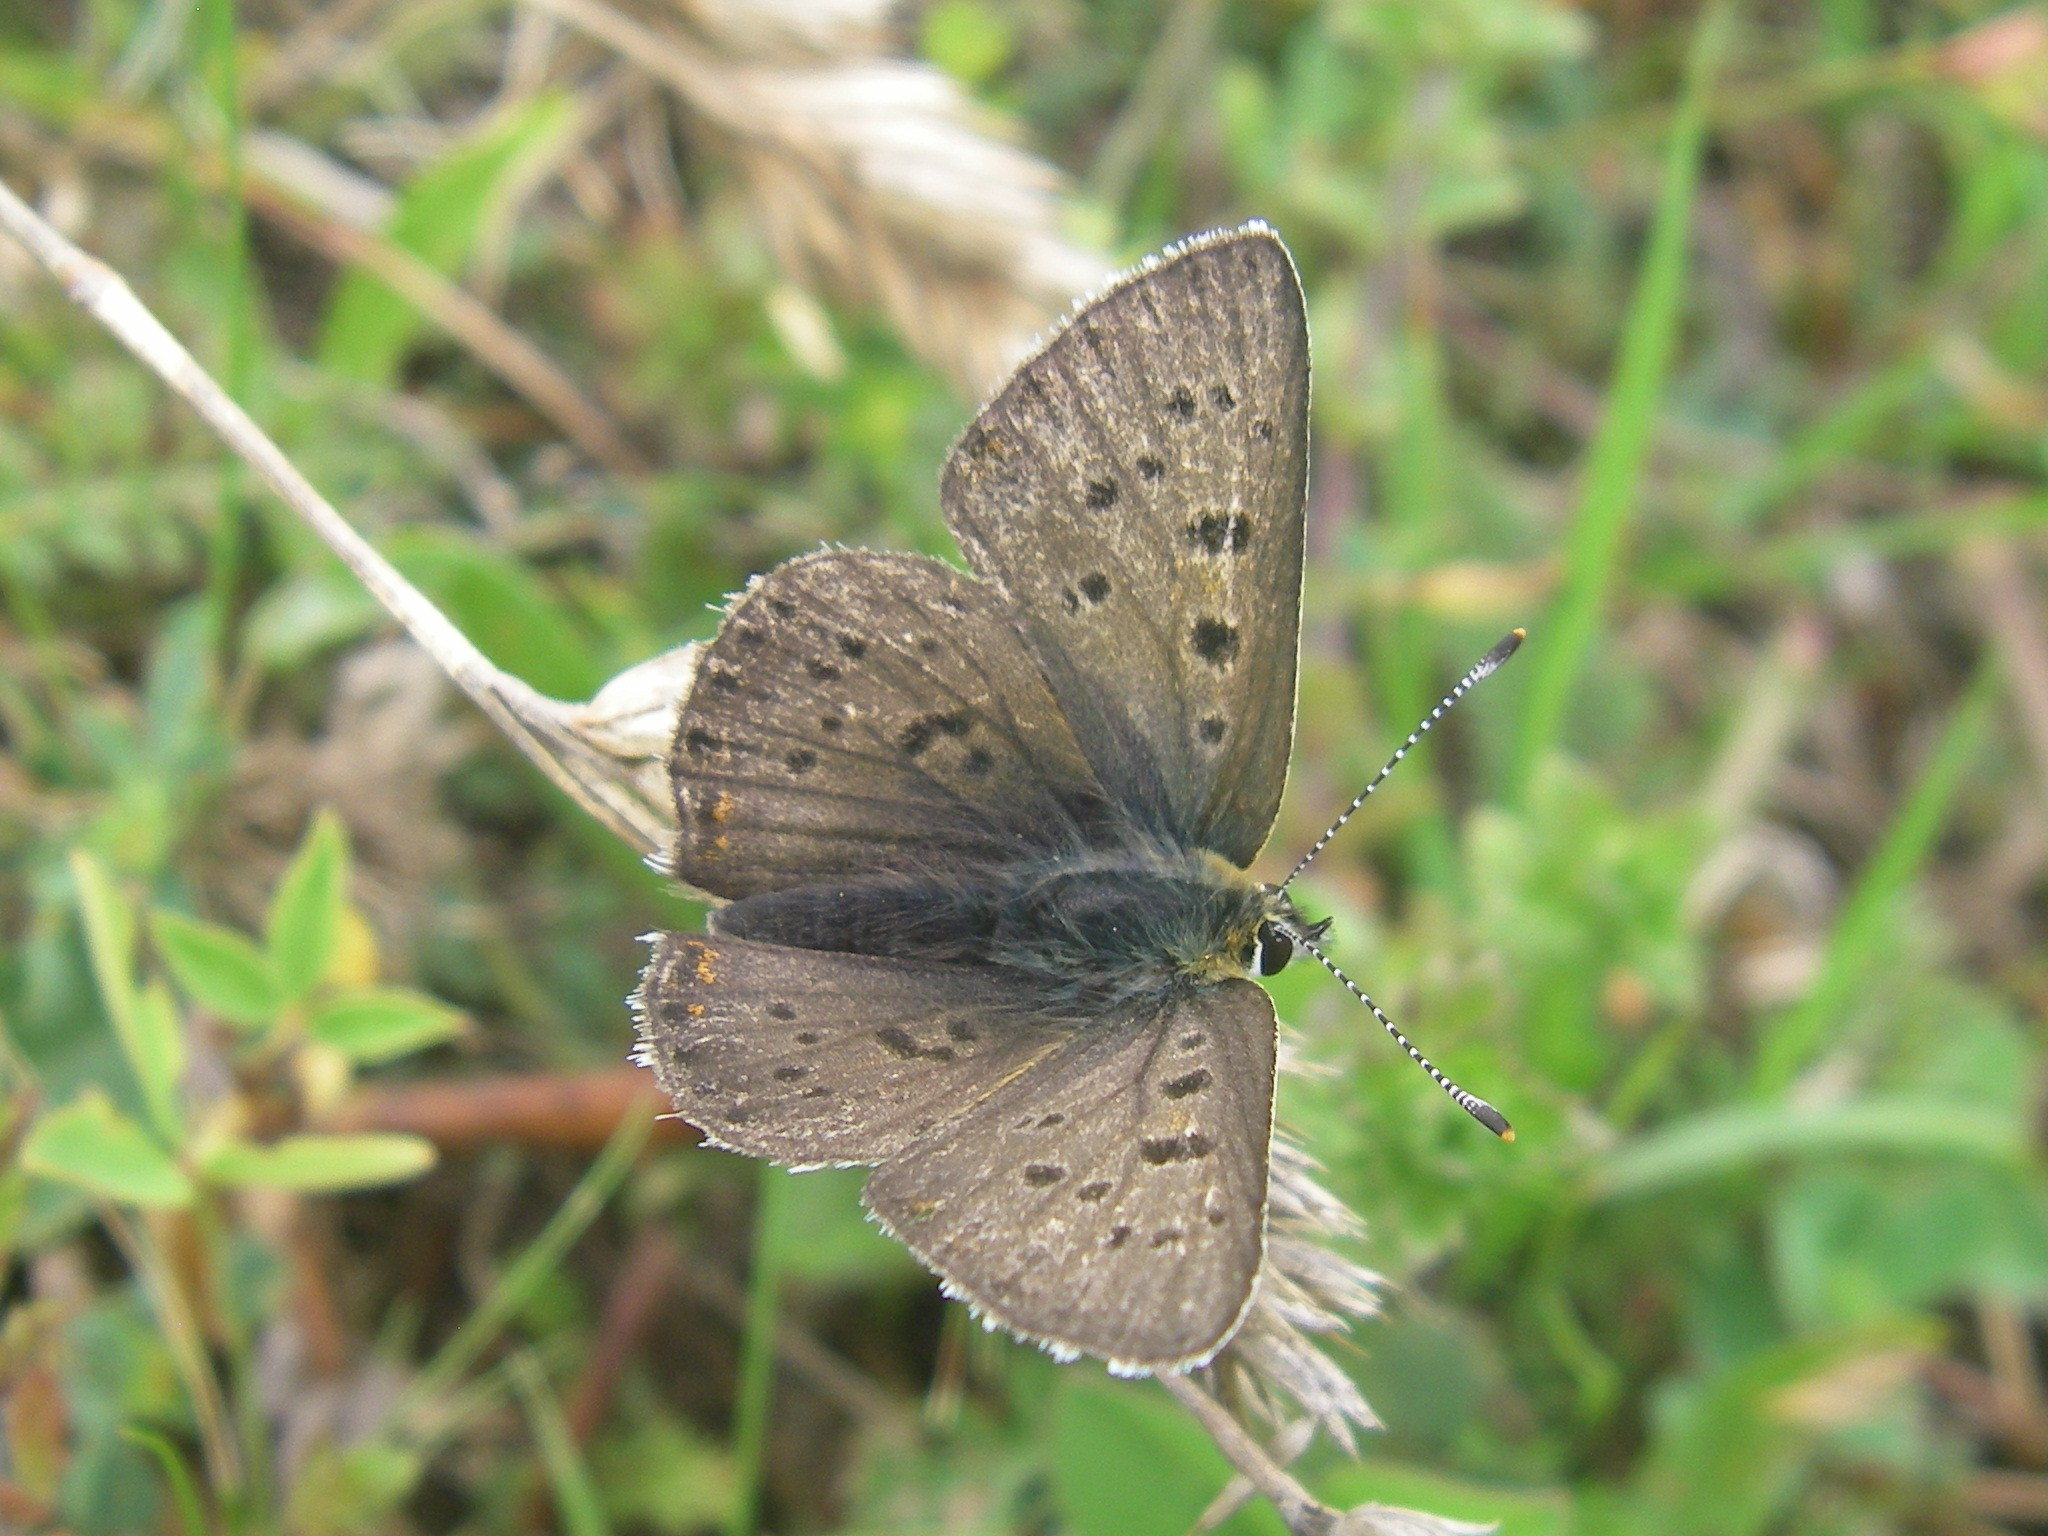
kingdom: Animalia
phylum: Arthropoda
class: Insecta
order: Lepidoptera
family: Lycaenidae
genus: Loweia
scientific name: Loweia tityrus
